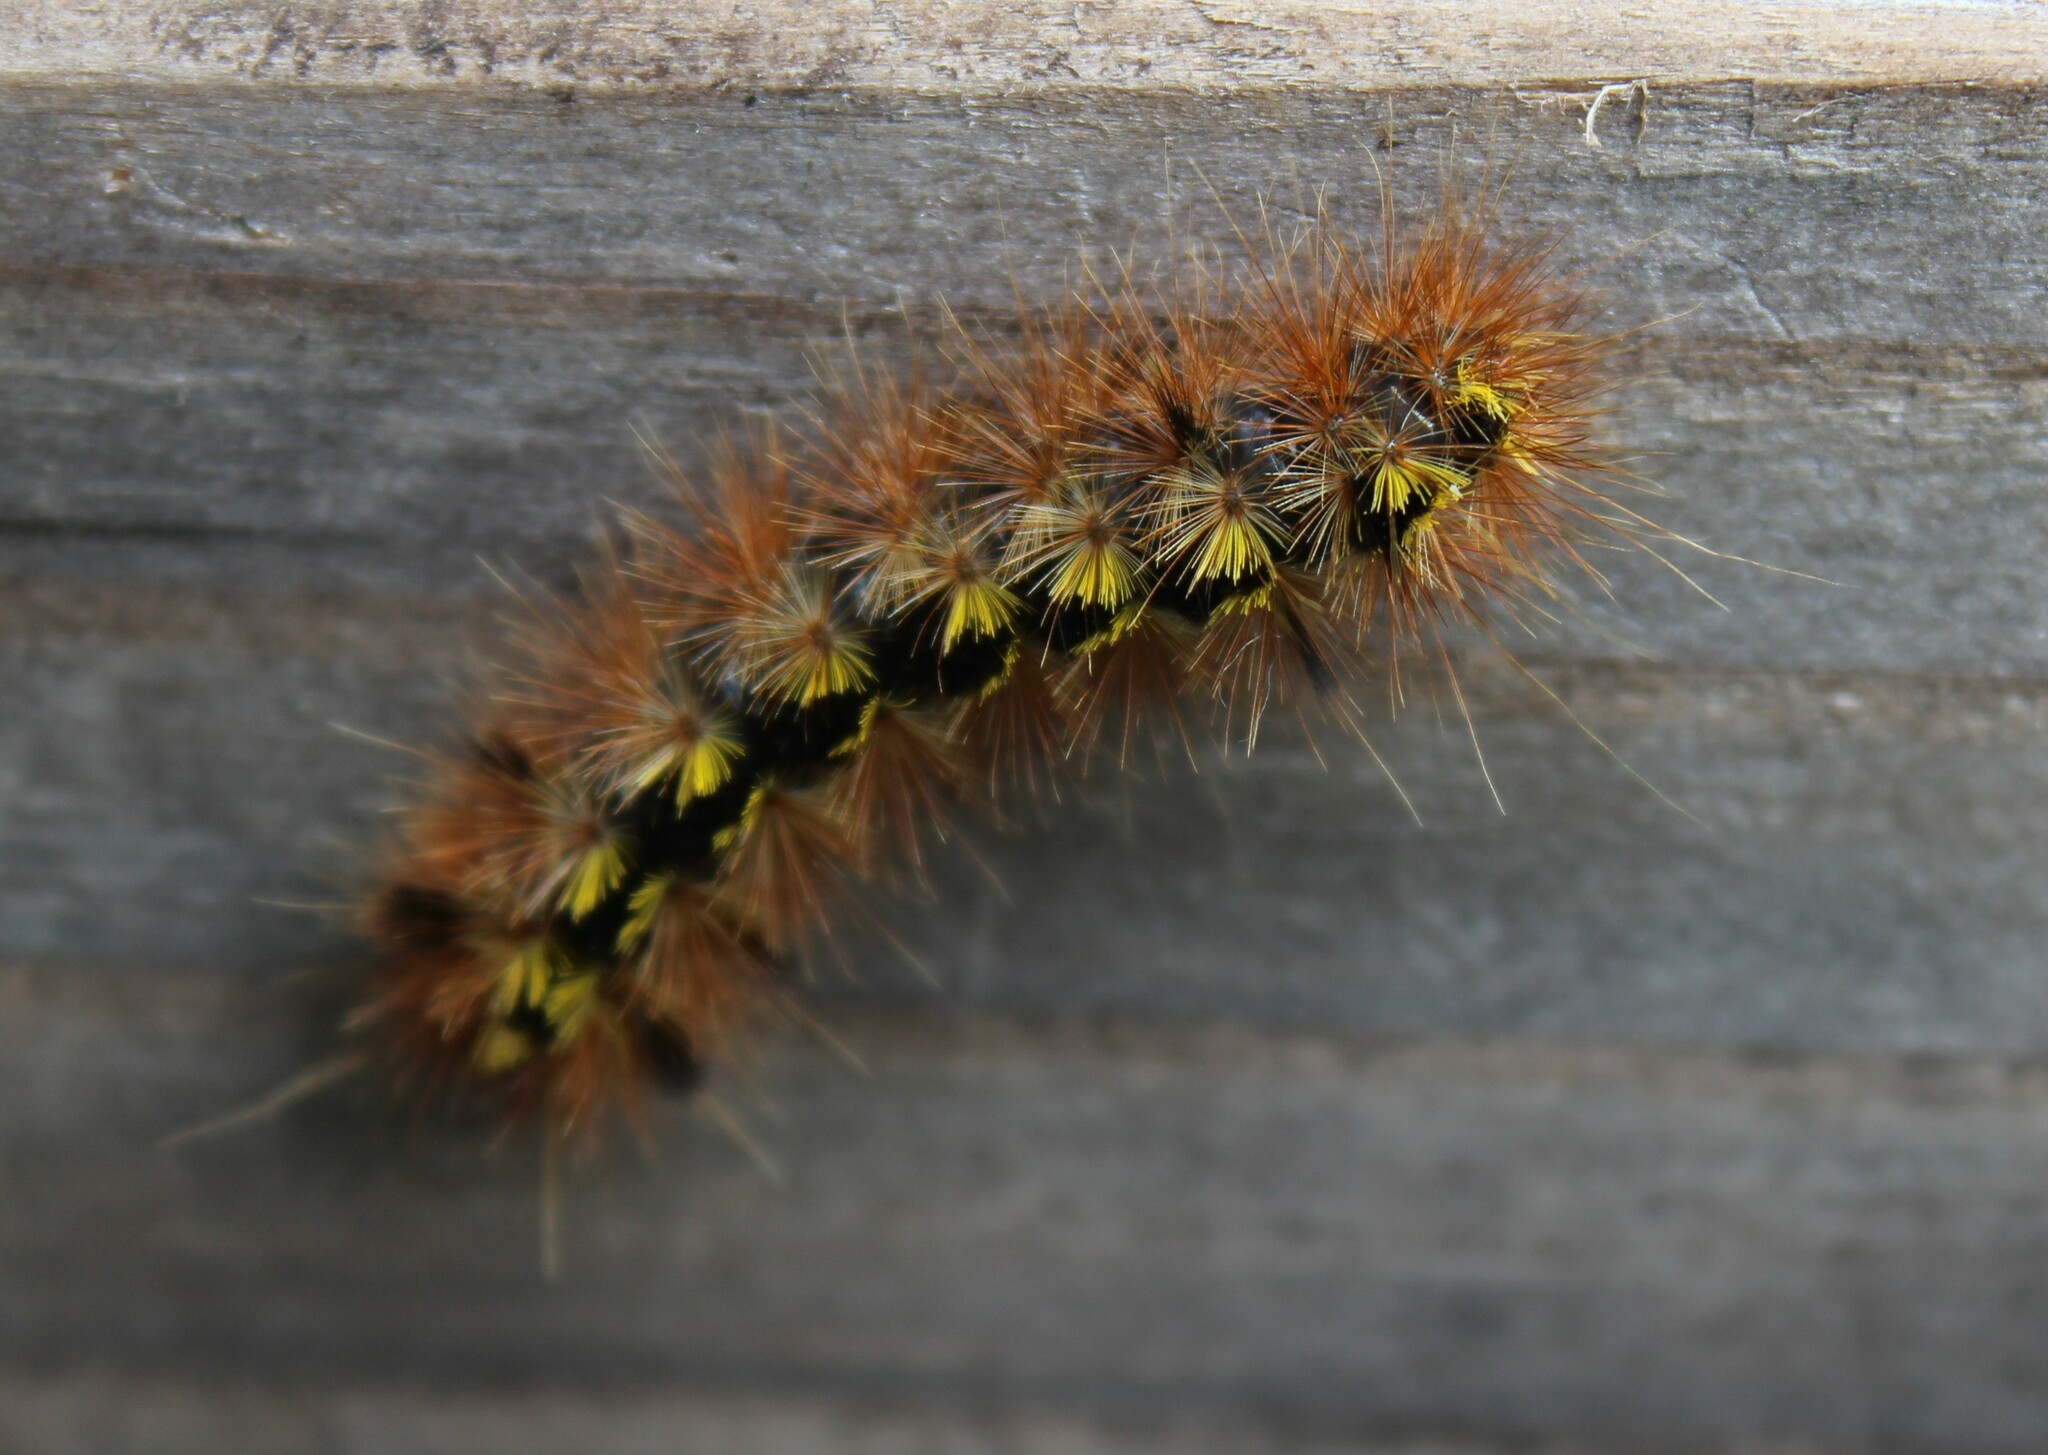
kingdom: Animalia
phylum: Arthropoda
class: Insecta
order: Lepidoptera
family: Erebidae
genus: Lophocampa
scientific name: Lophocampa argentata
